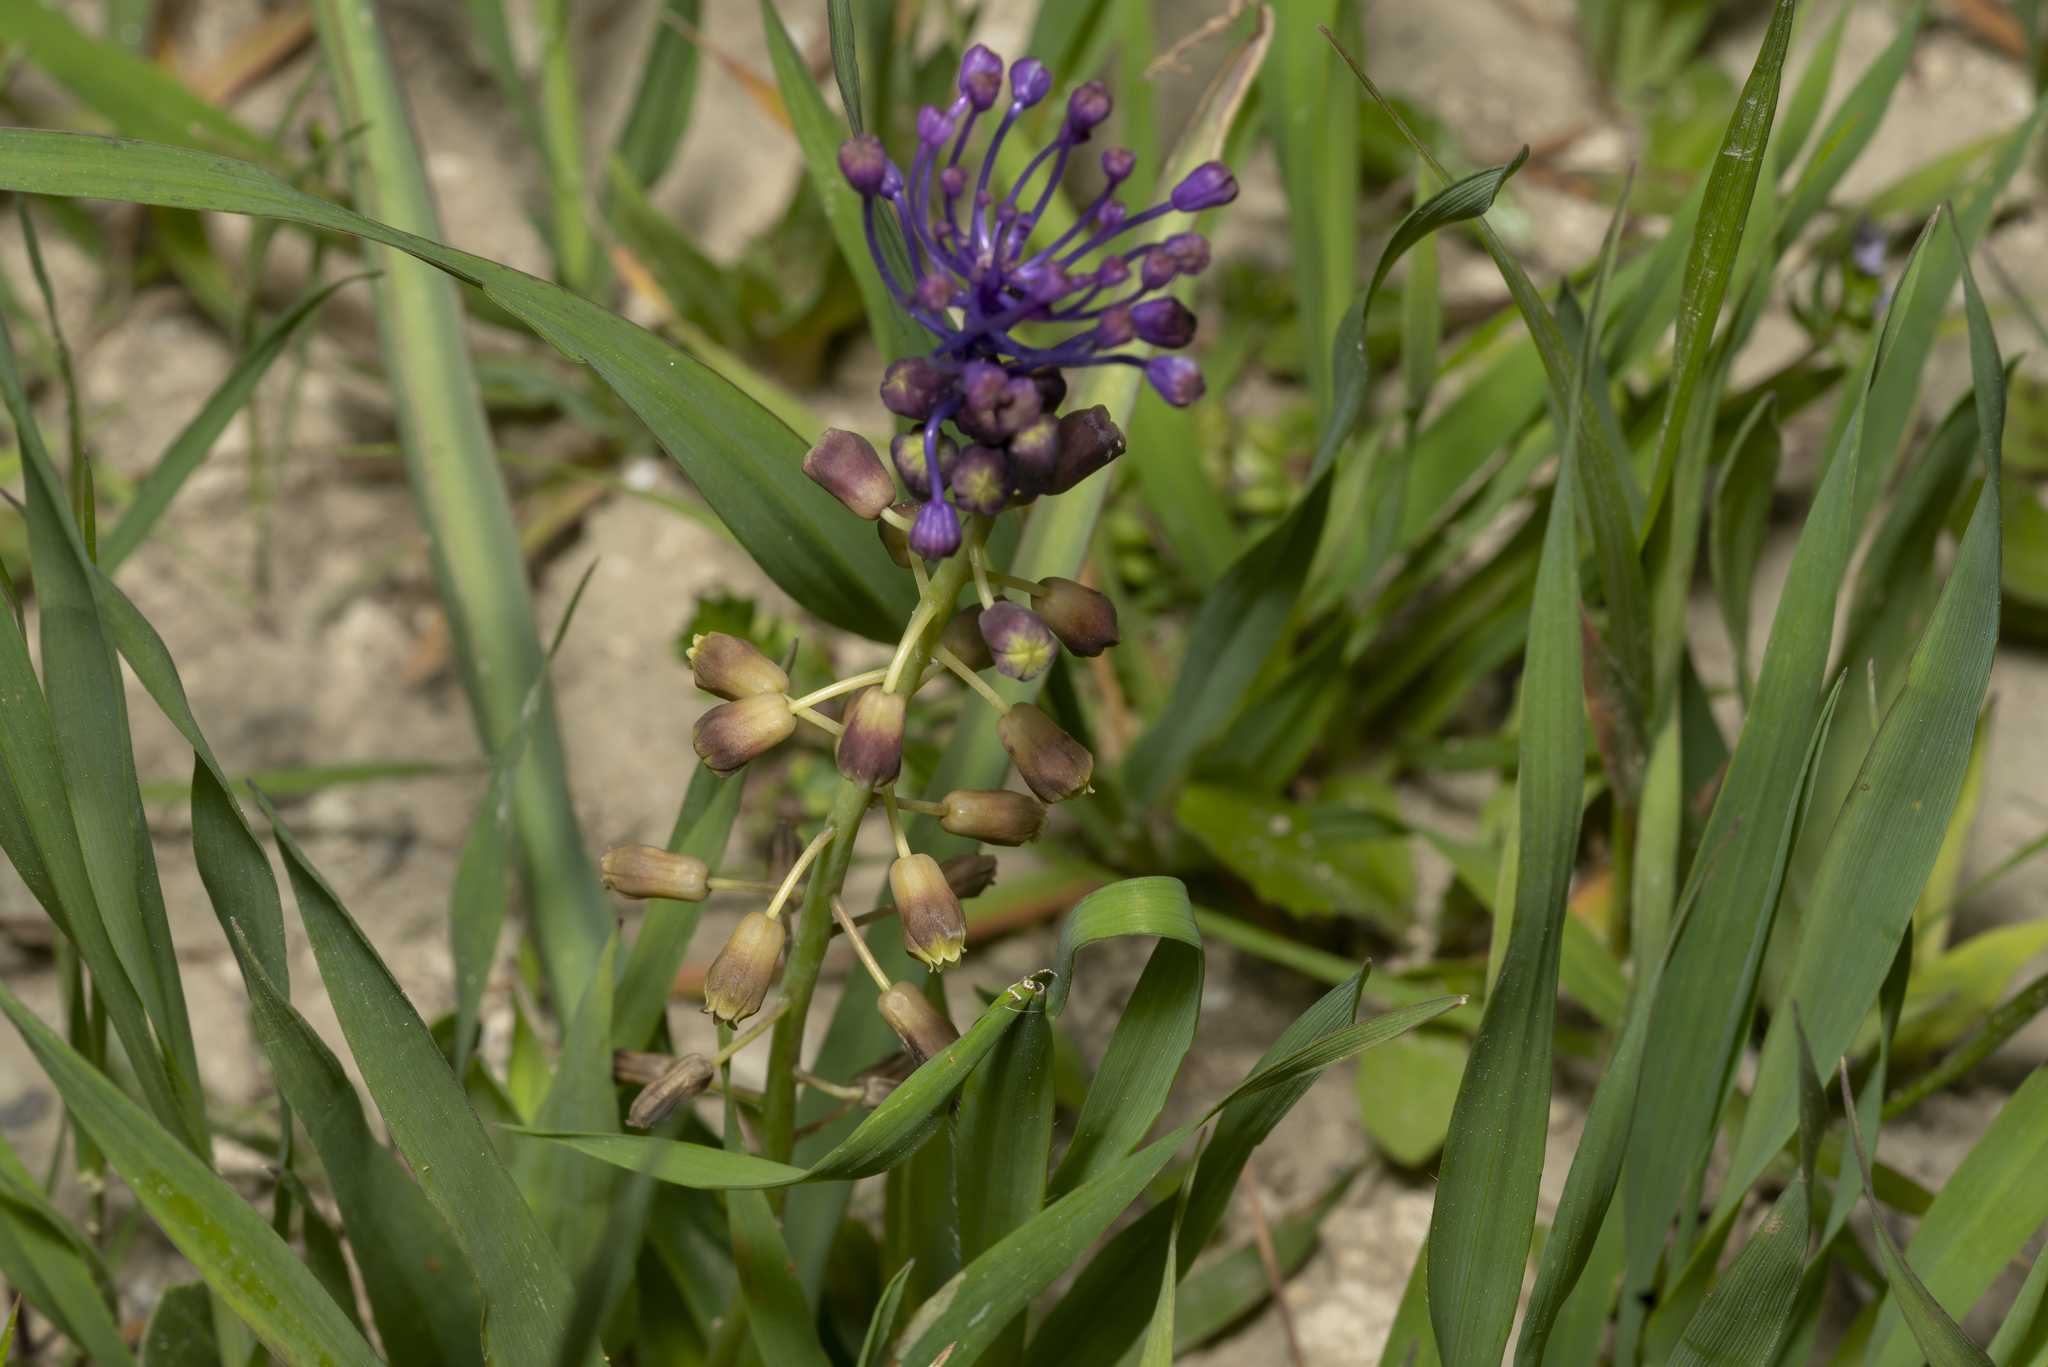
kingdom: Plantae
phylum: Tracheophyta
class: Liliopsida
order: Asparagales
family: Asparagaceae
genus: Muscari
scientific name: Muscari comosum
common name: Tassel hyacinth
